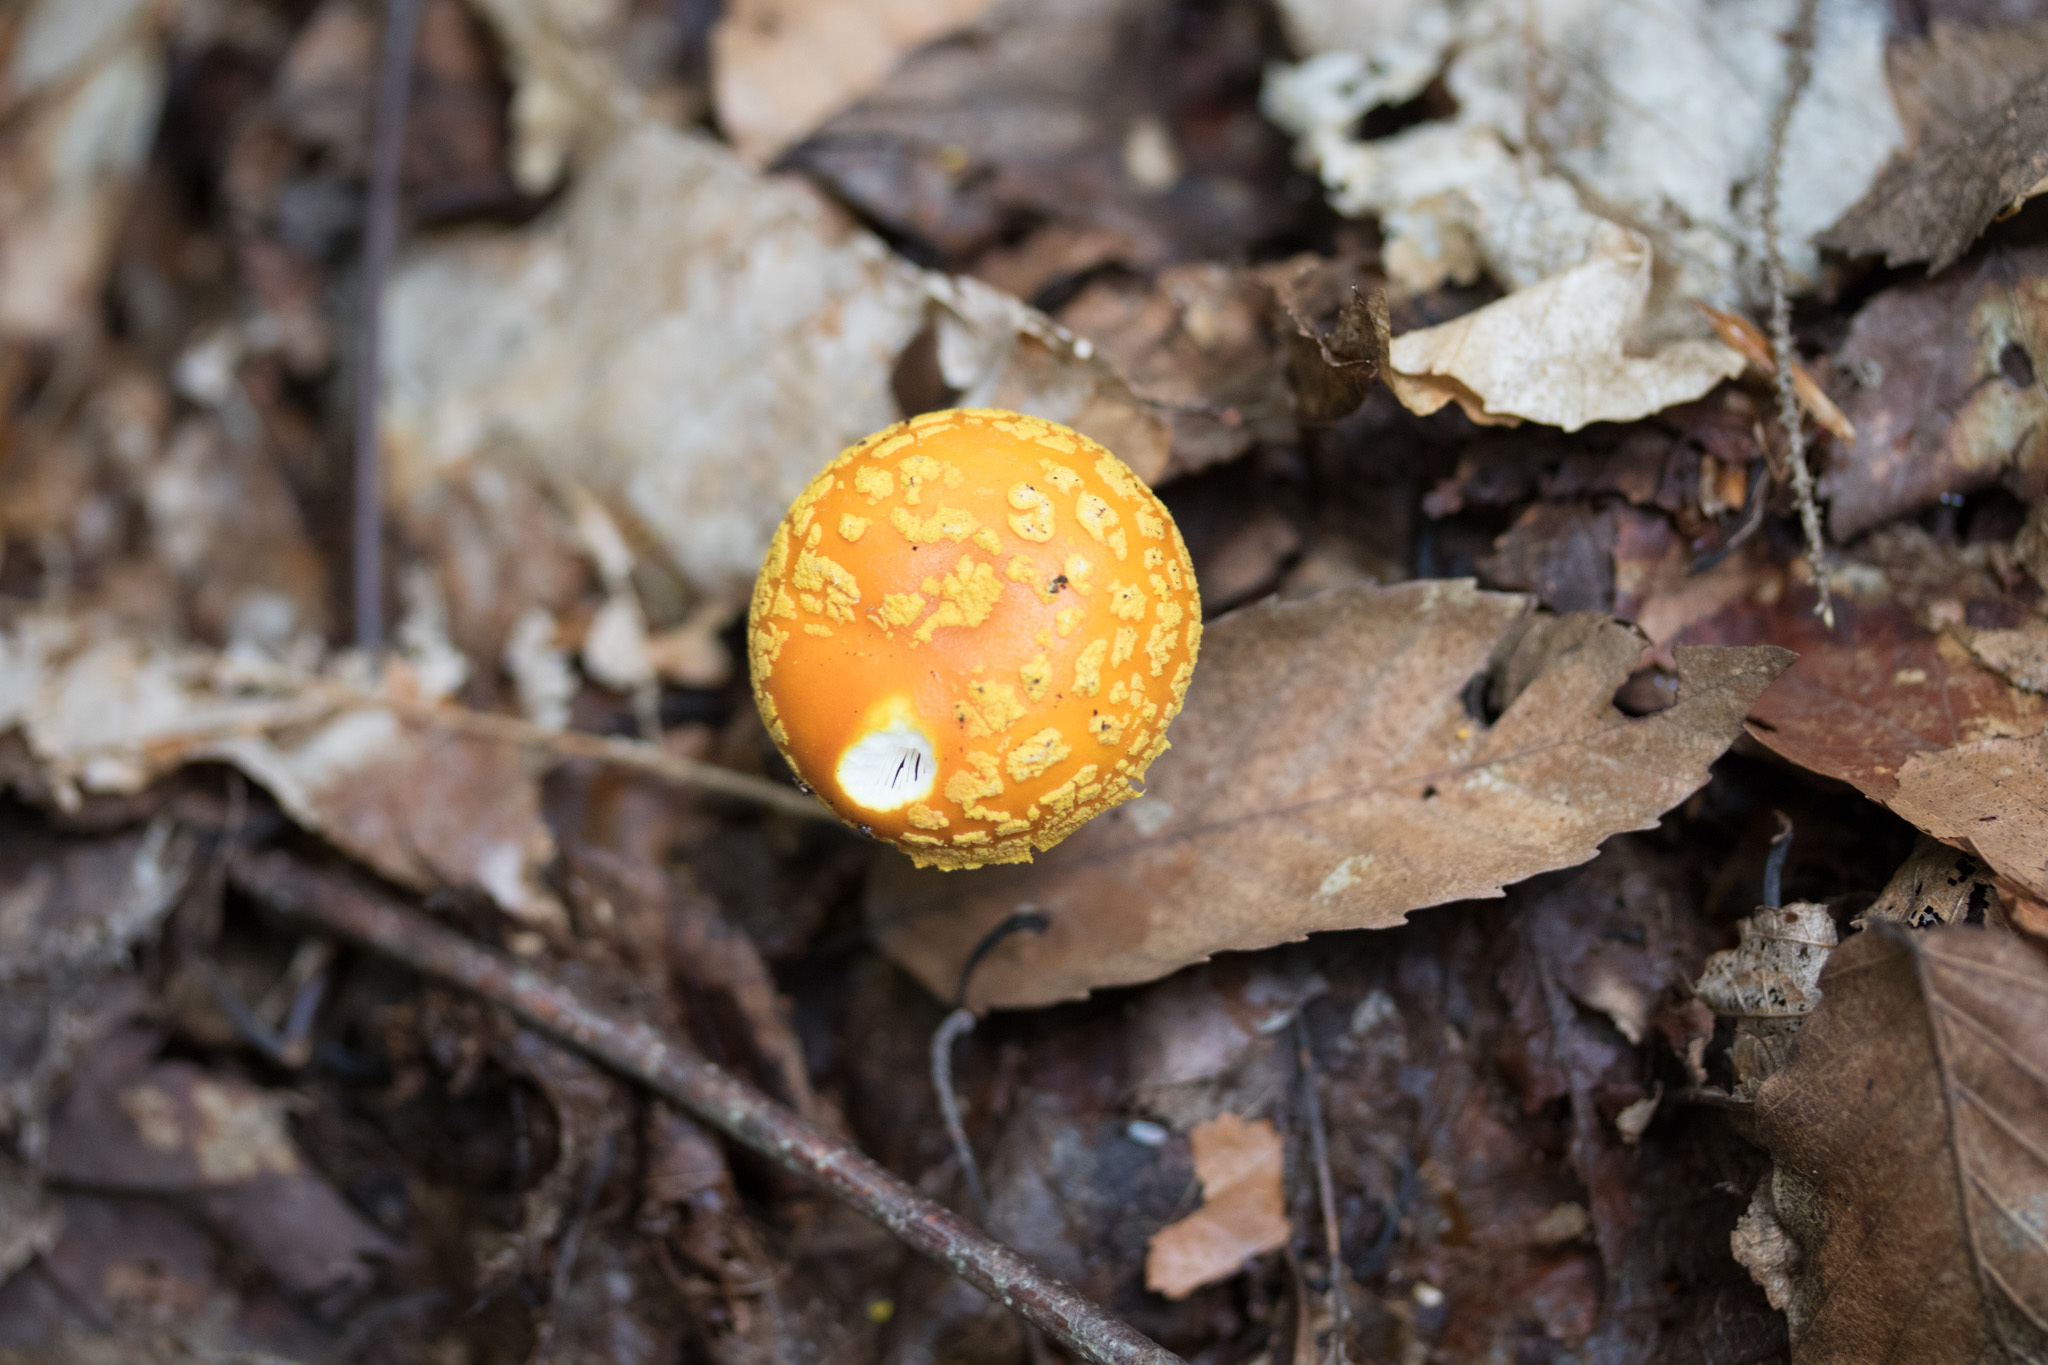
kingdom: Fungi
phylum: Basidiomycota
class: Agaricomycetes
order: Agaricales
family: Amanitaceae
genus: Amanita
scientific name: Amanita flavoconia
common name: Yellow patches
